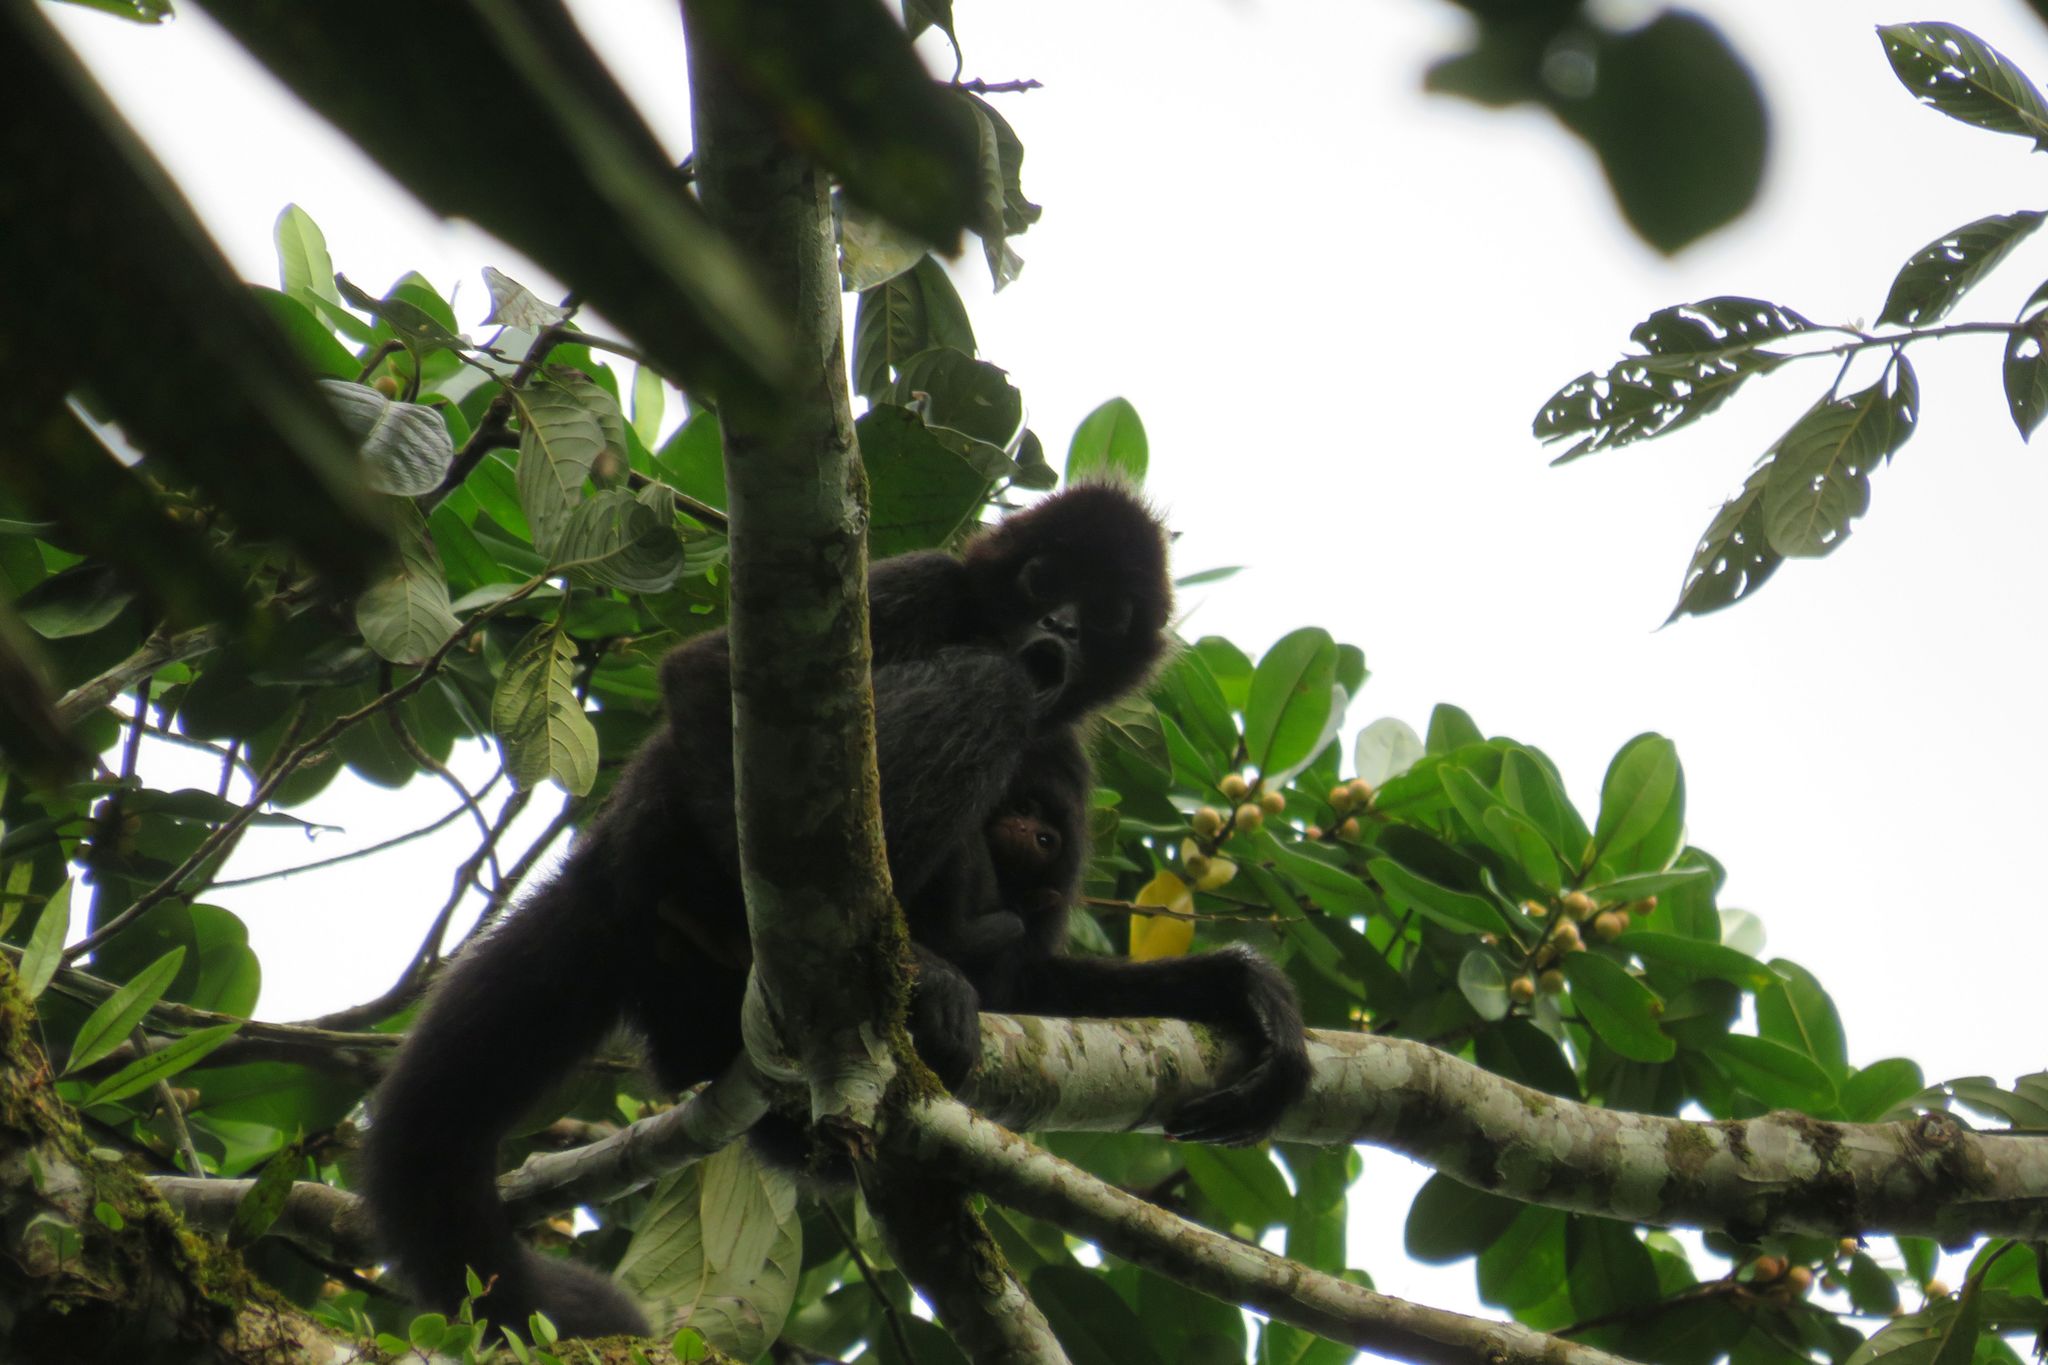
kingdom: Animalia
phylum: Chordata
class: Mammalia
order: Primates
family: Atelidae
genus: Ateles
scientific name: Ateles fusciceps
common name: Black-headed spider monkey
